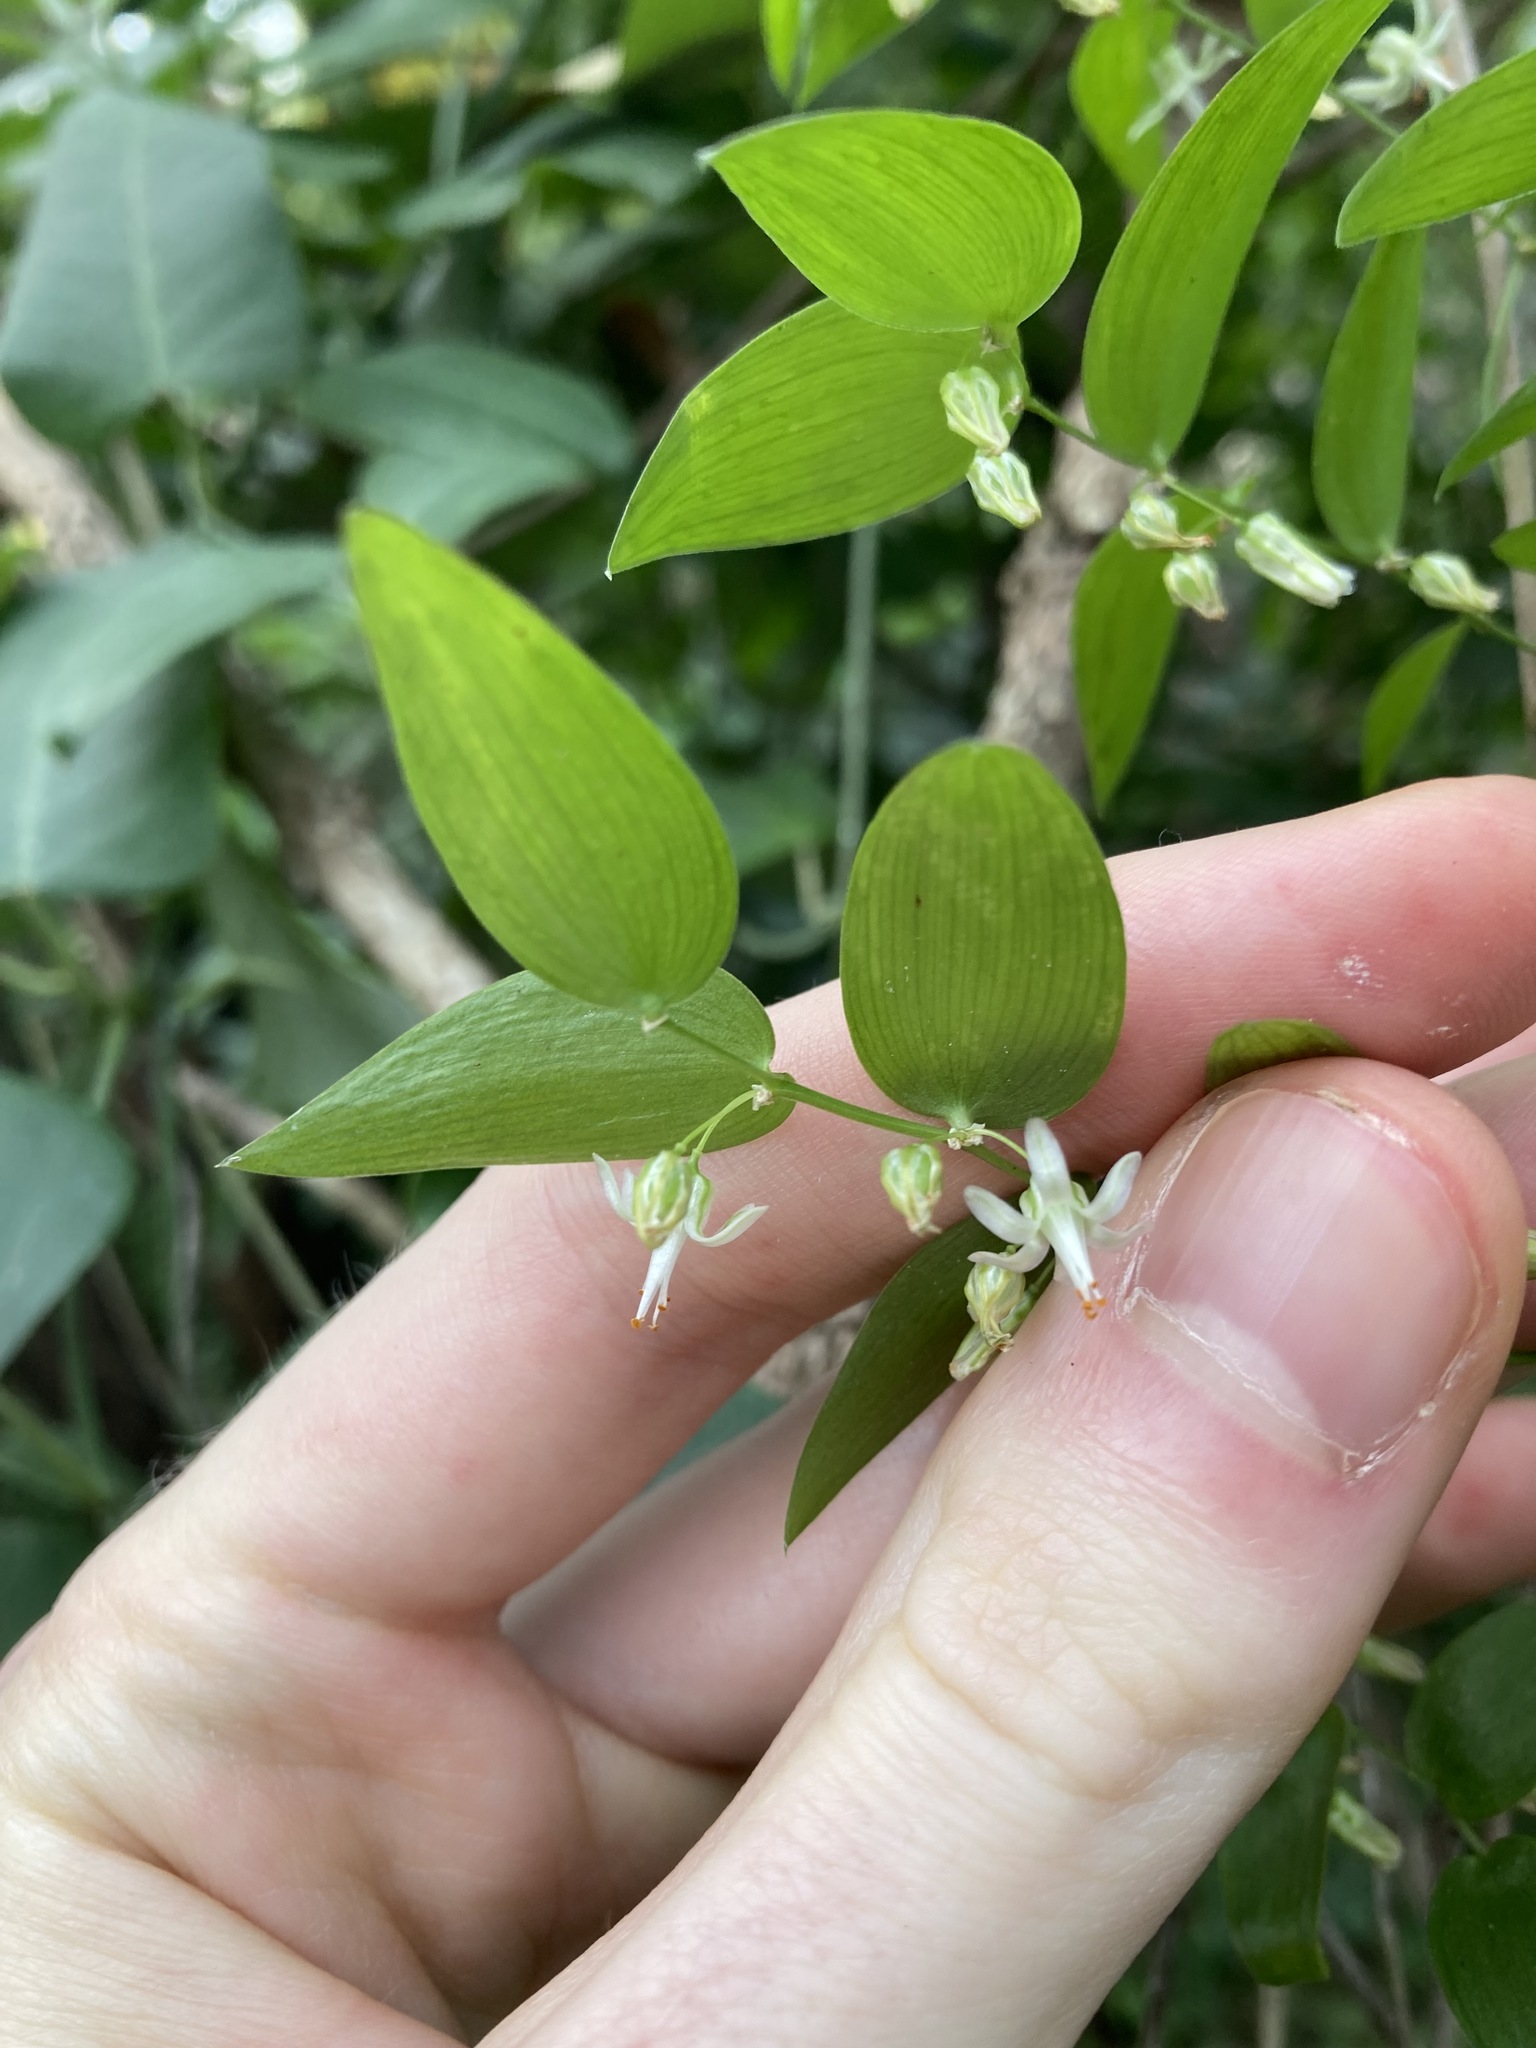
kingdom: Plantae
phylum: Tracheophyta
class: Liliopsida
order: Asparagales
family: Asparagaceae
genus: Asparagus
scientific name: Asparagus asparagoides
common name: African asparagus fern
